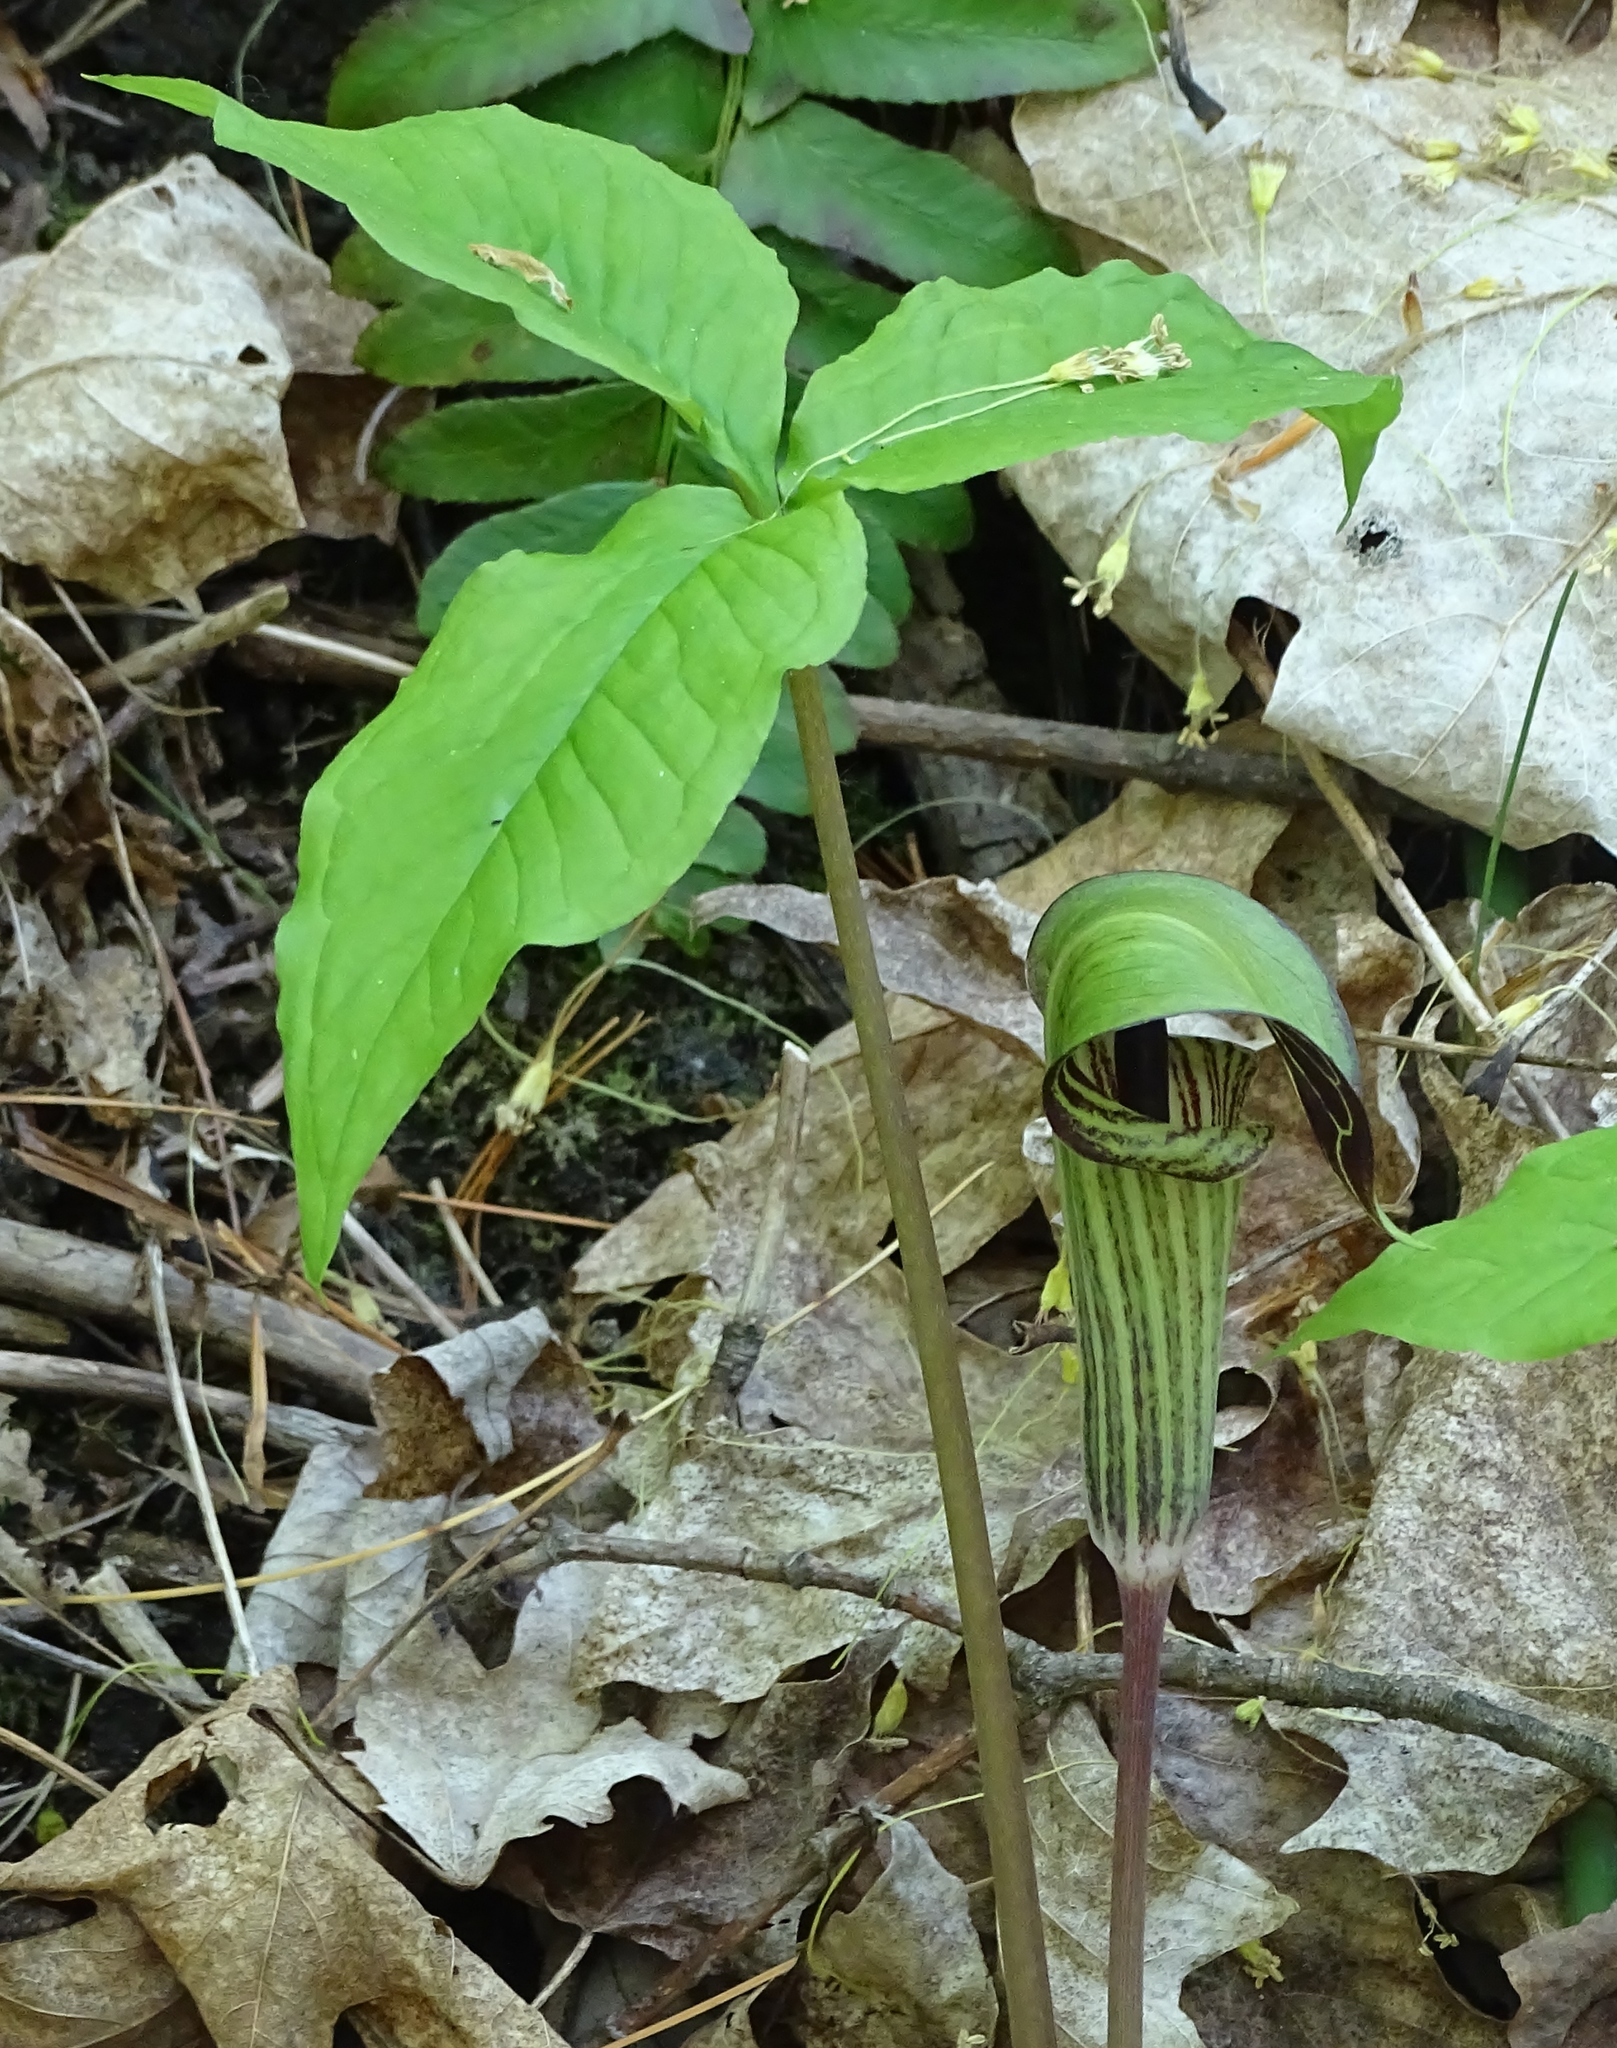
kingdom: Plantae
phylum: Tracheophyta
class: Liliopsida
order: Alismatales
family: Araceae
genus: Arisaema
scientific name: Arisaema triphyllum
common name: Jack-in-the-pulpit
